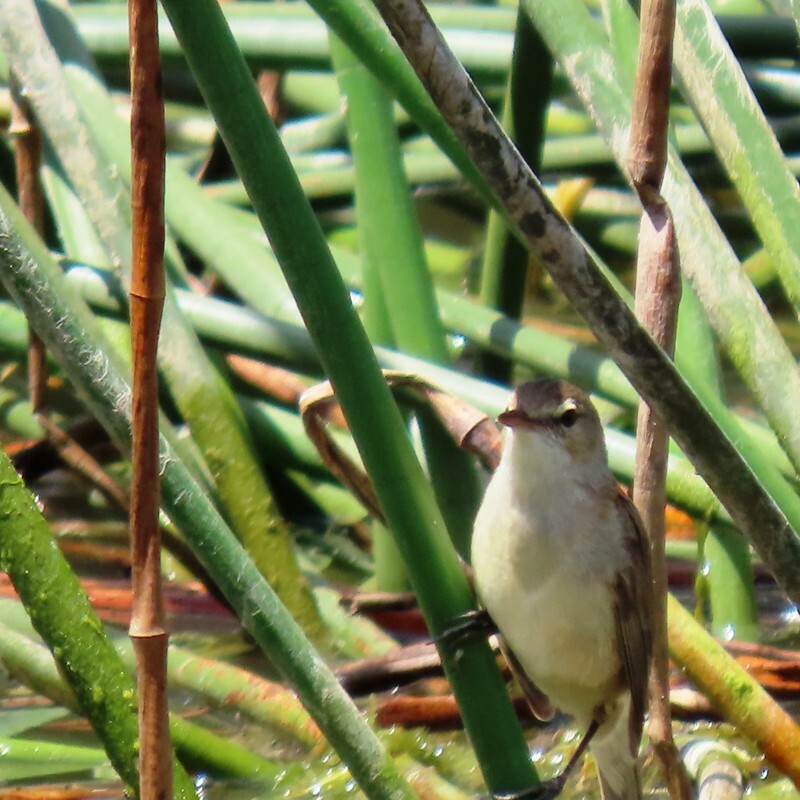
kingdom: Animalia
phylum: Chordata
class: Aves
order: Passeriformes
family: Acrocephalidae
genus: Acrocephalus
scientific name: Acrocephalus australis
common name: Australian reed warbler
